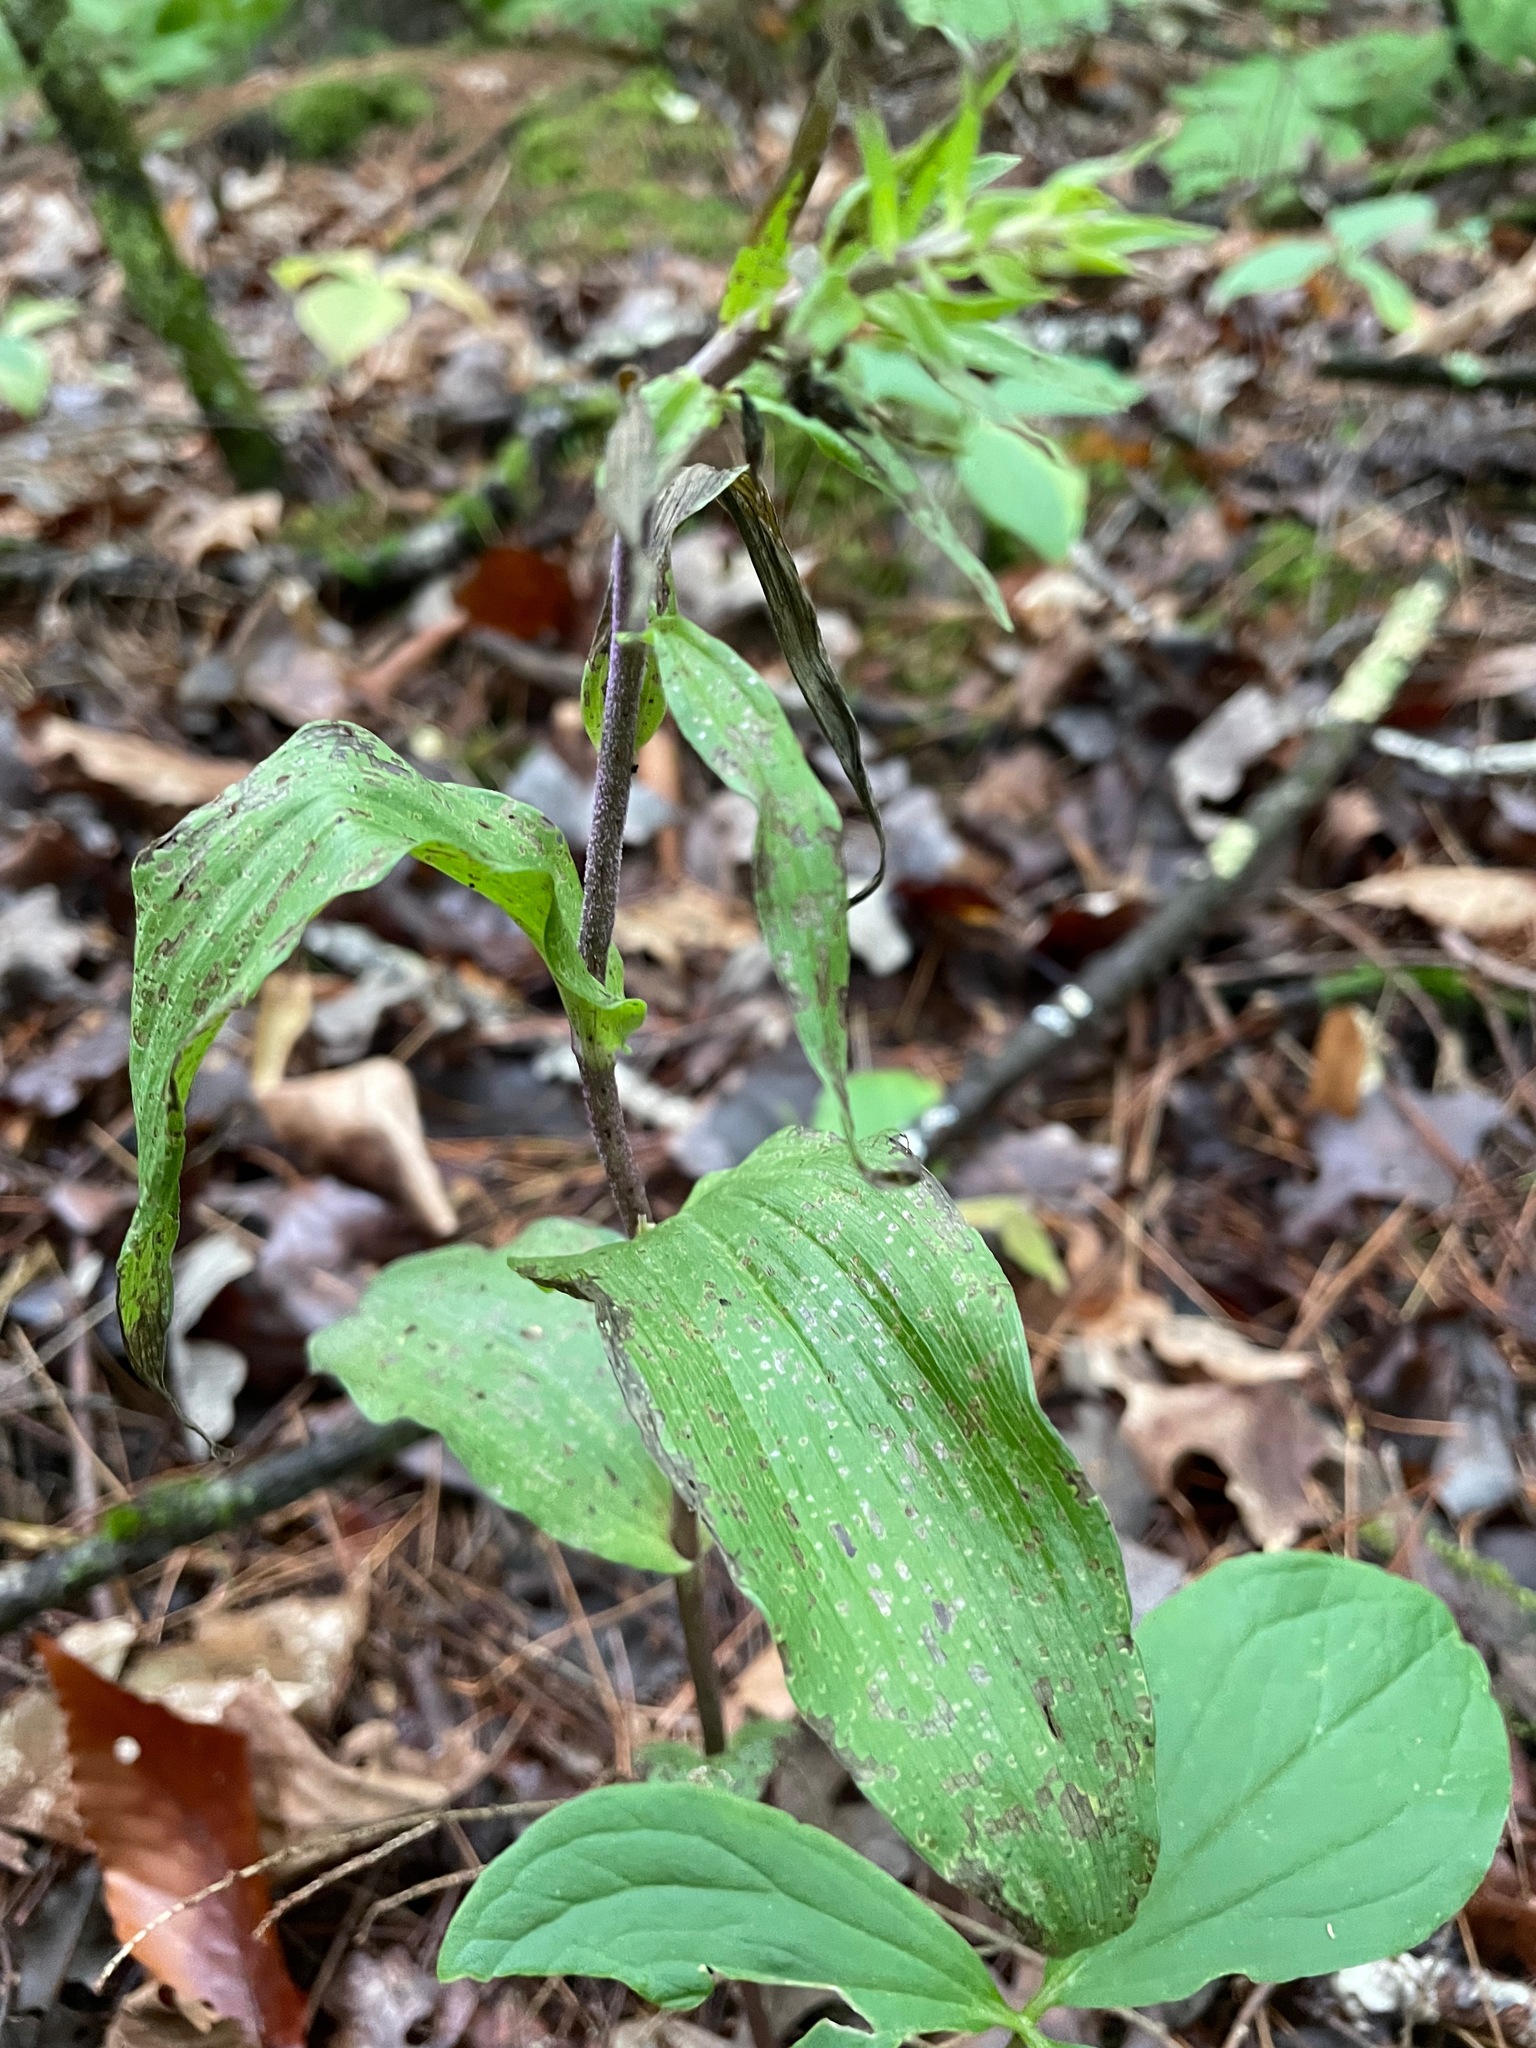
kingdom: Plantae
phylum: Tracheophyta
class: Liliopsida
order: Asparagales
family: Orchidaceae
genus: Epipactis
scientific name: Epipactis helleborine
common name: Broad-leaved helleborine
